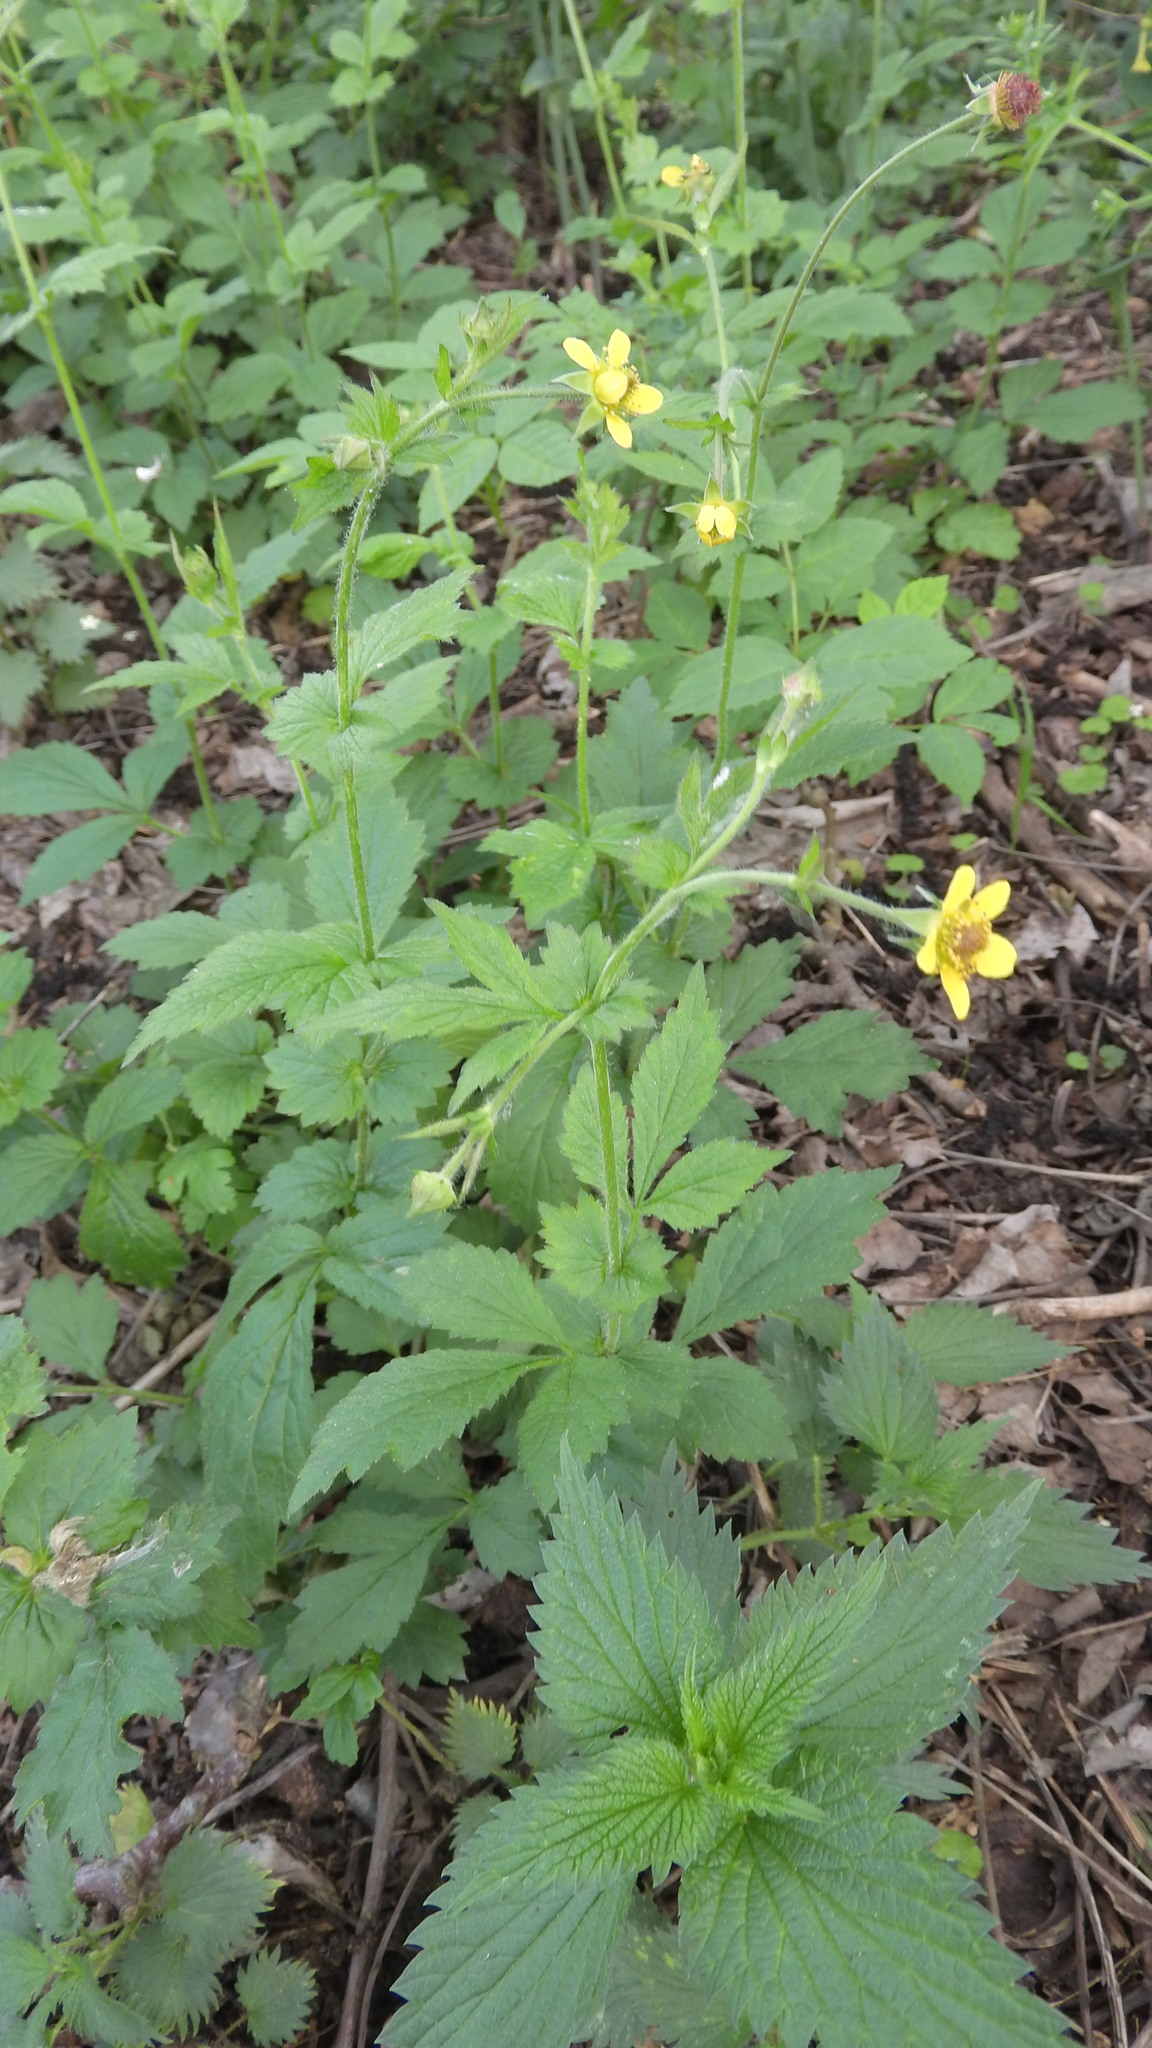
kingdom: Plantae
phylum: Tracheophyta
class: Magnoliopsida
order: Rosales
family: Rosaceae
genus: Geum
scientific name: Geum urbanum
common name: Wood avens
